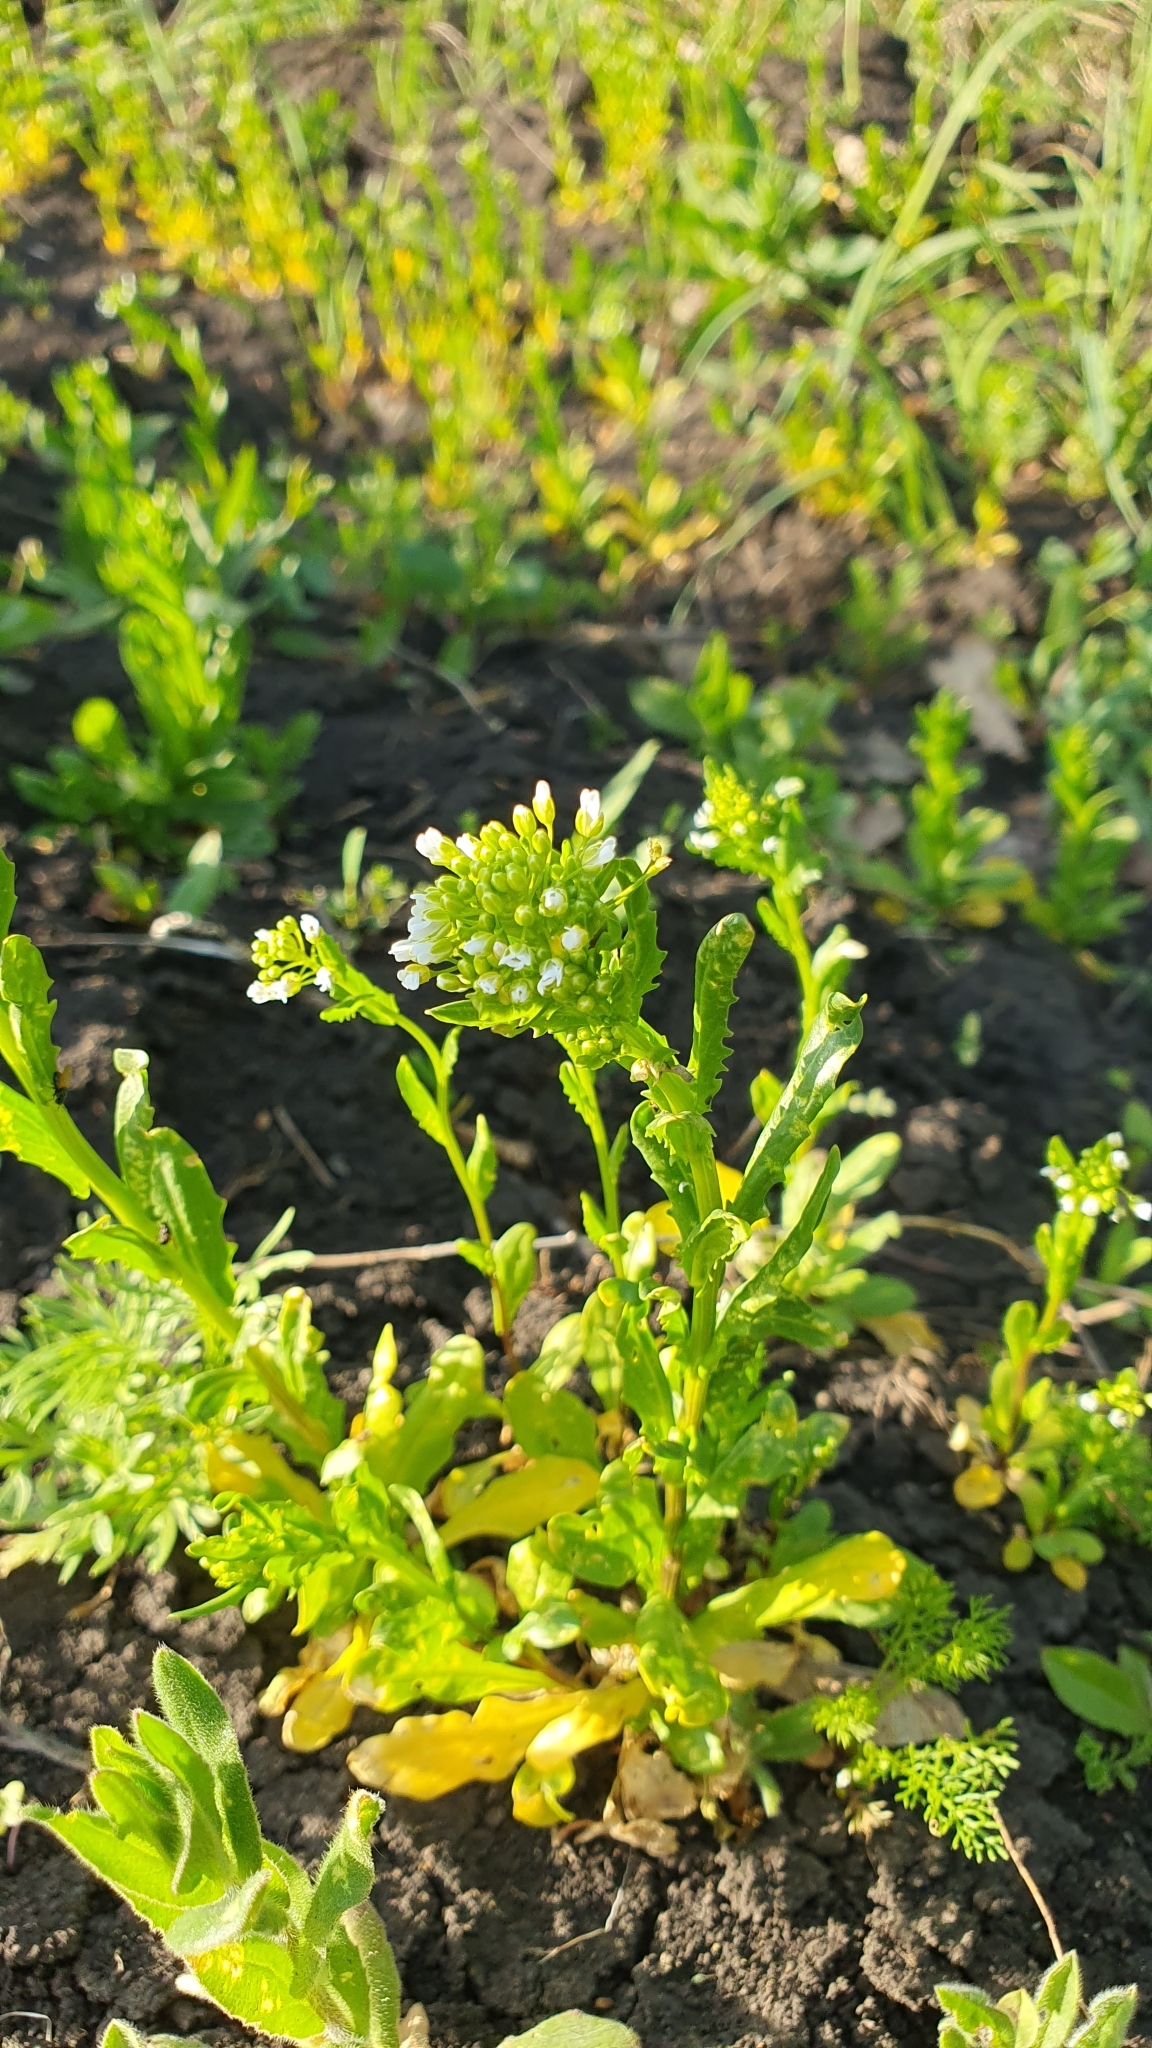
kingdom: Plantae
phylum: Tracheophyta
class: Magnoliopsida
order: Brassicales
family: Brassicaceae
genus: Thlaspi
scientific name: Thlaspi arvense
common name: Field pennycress
